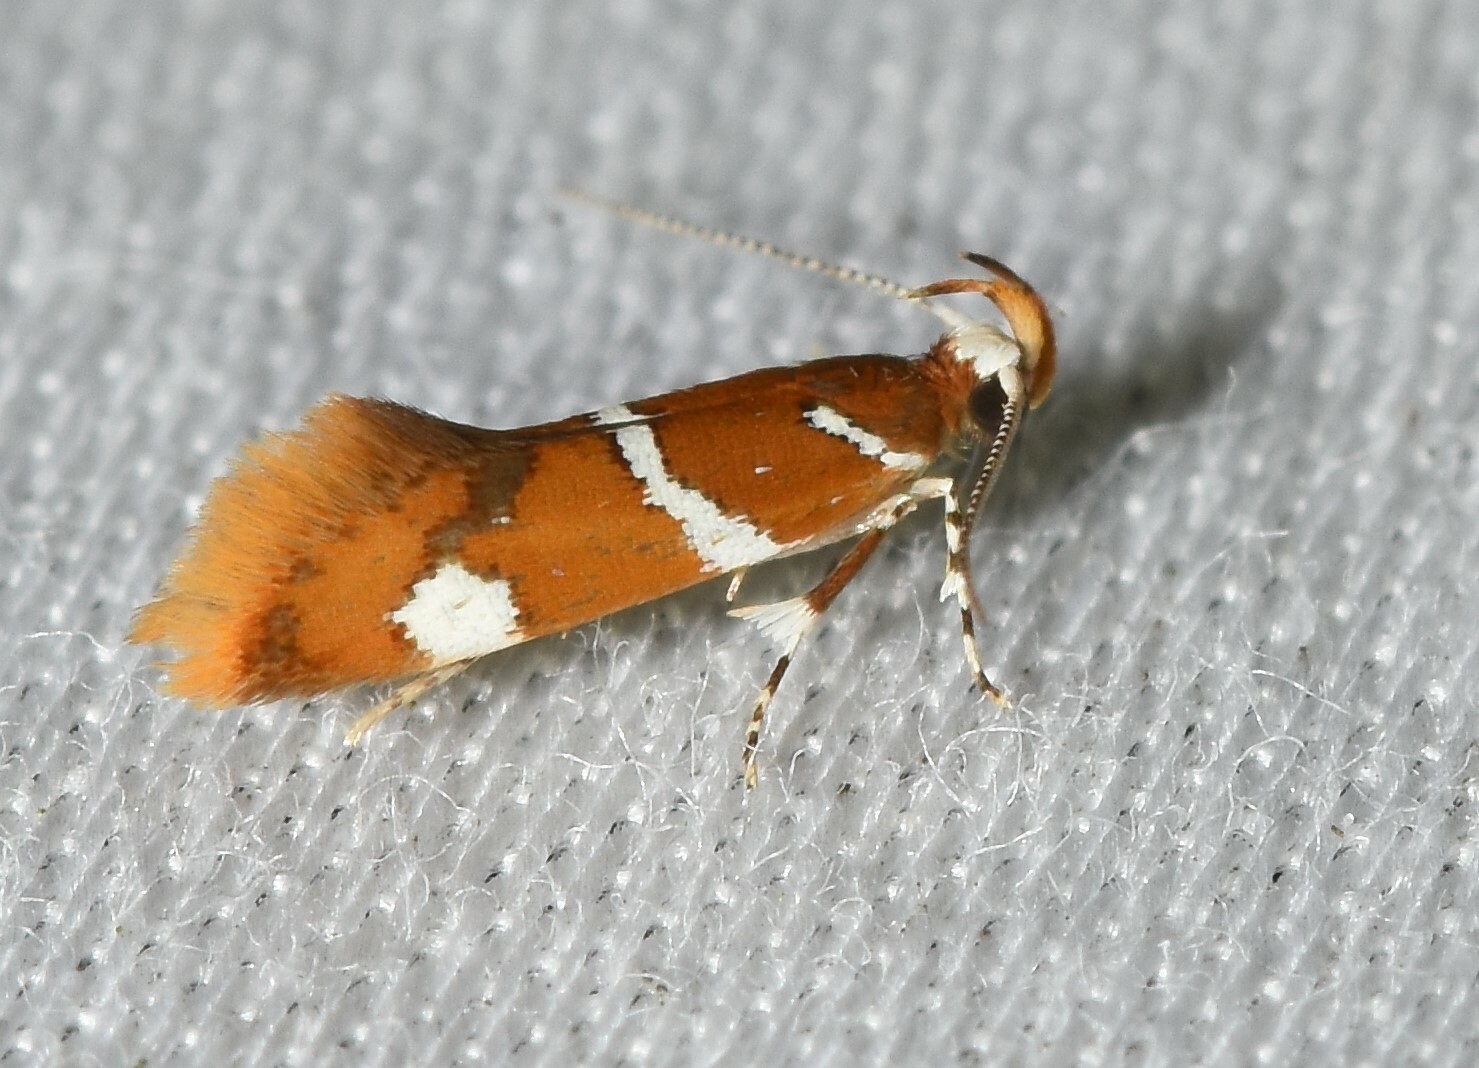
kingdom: Animalia
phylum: Arthropoda
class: Insecta
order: Lepidoptera
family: Oecophoridae
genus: Promalactis
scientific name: Promalactis suzukiella
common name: Moth
